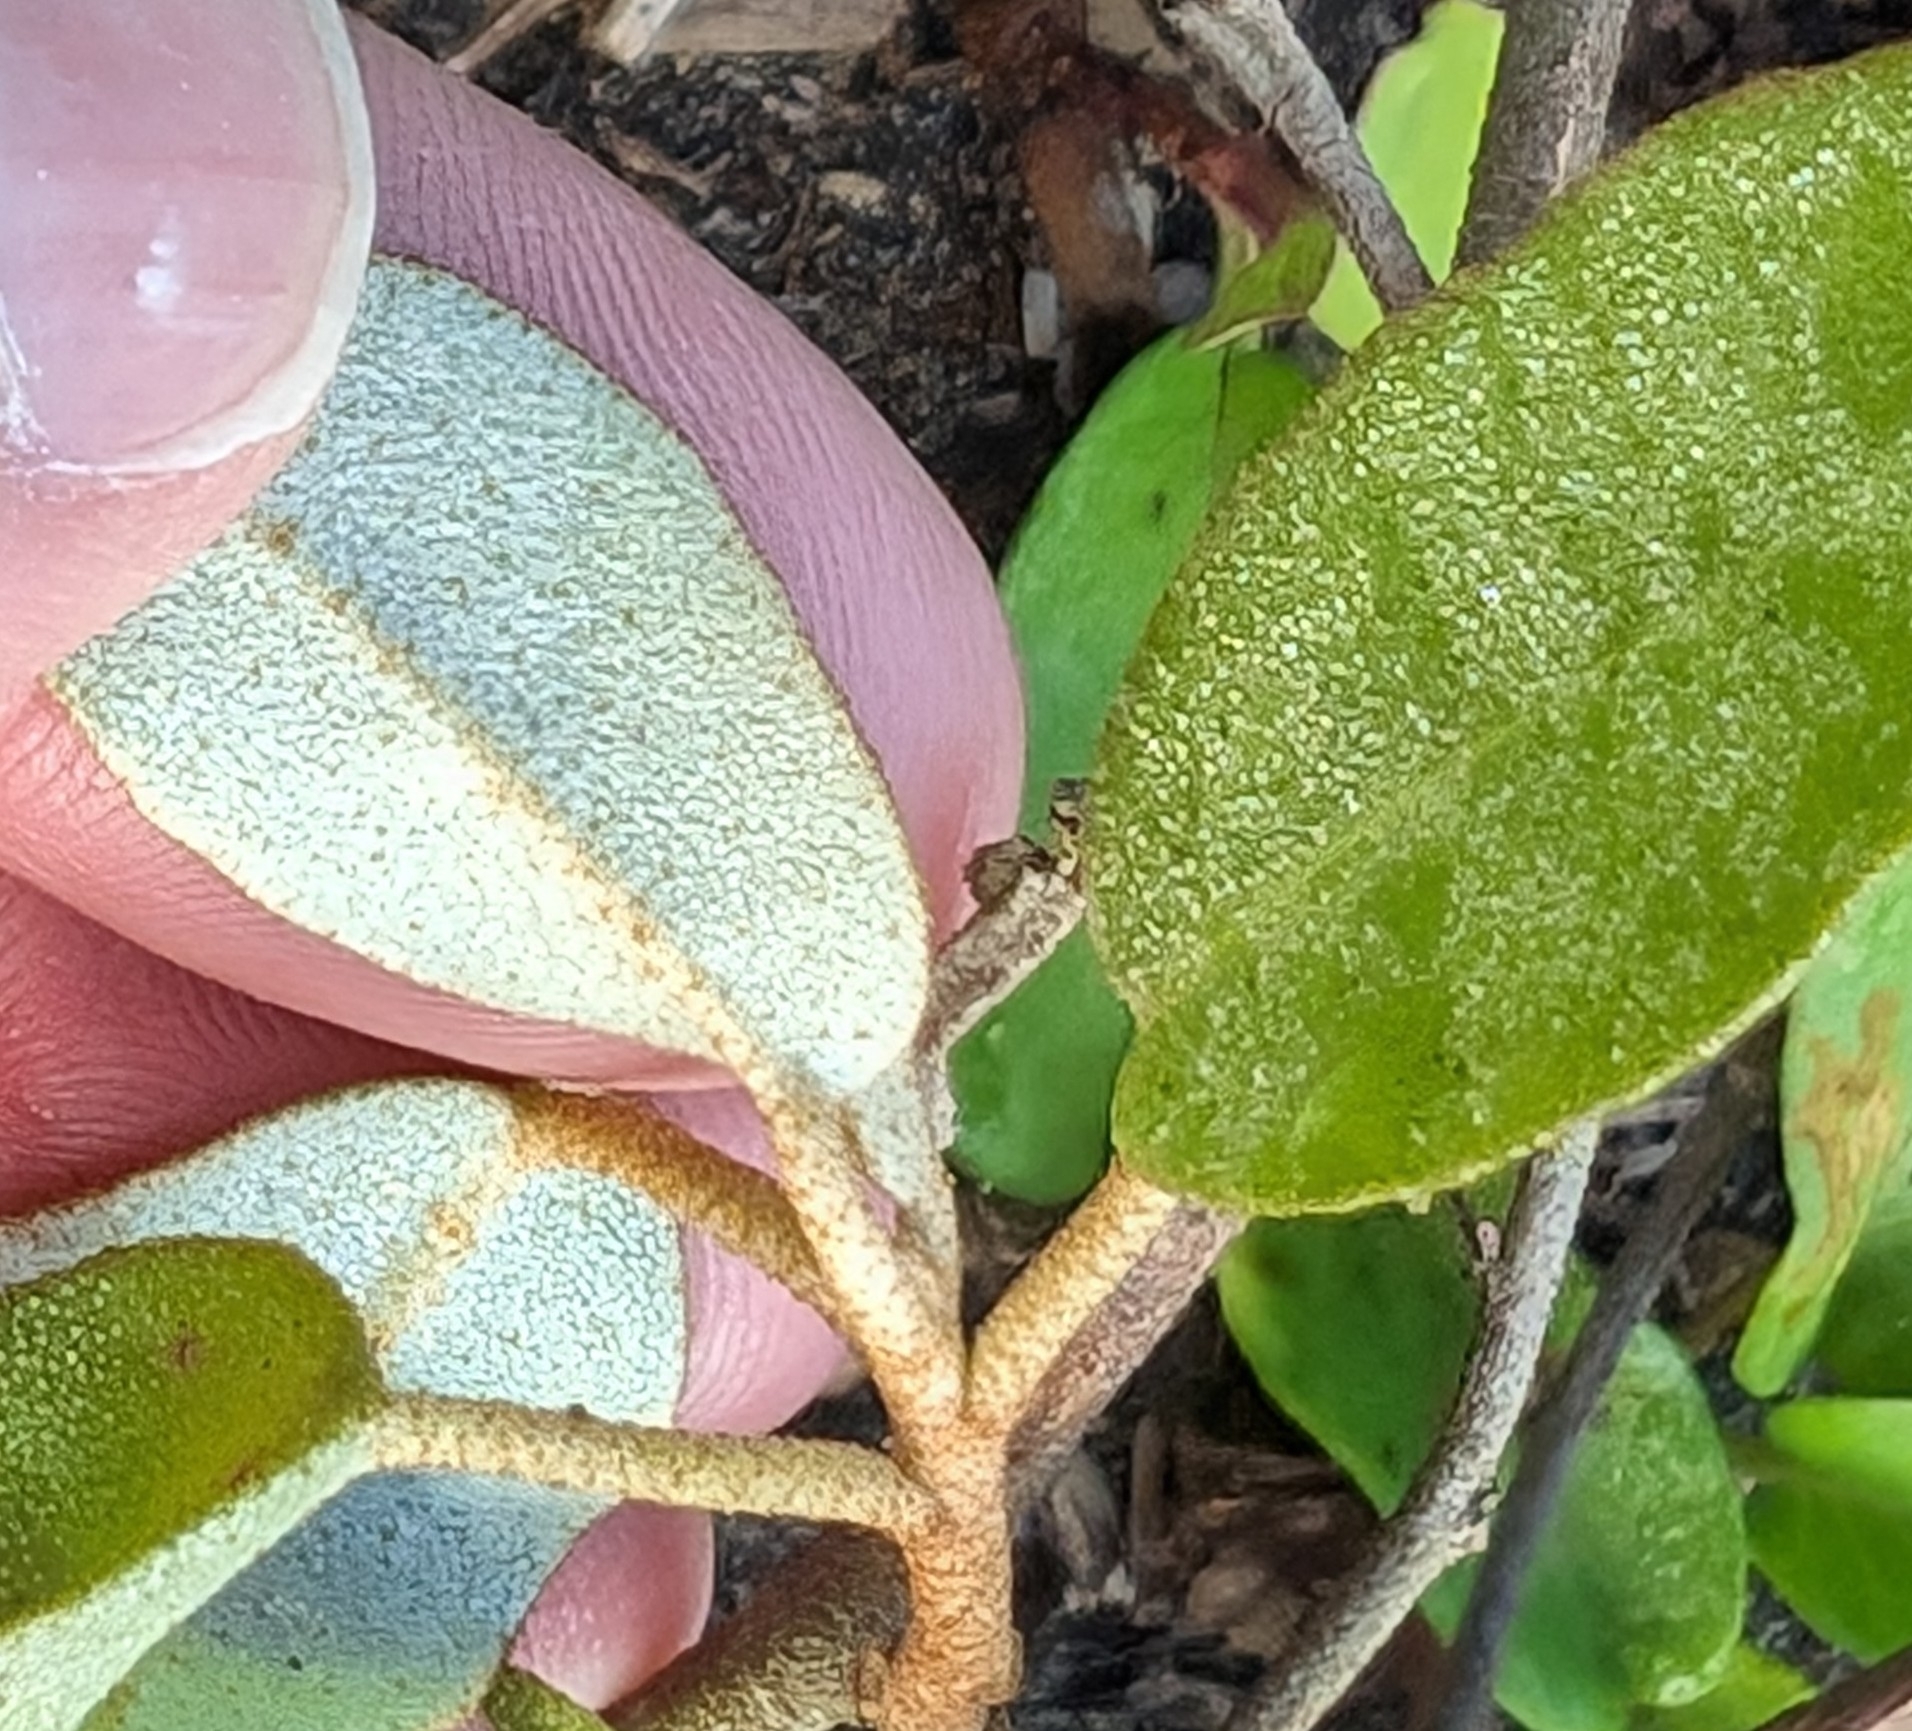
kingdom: Plantae
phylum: Tracheophyta
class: Magnoliopsida
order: Malpighiales
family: Euphorbiaceae
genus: Croton
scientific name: Croton punctatus
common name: Beach-tea
